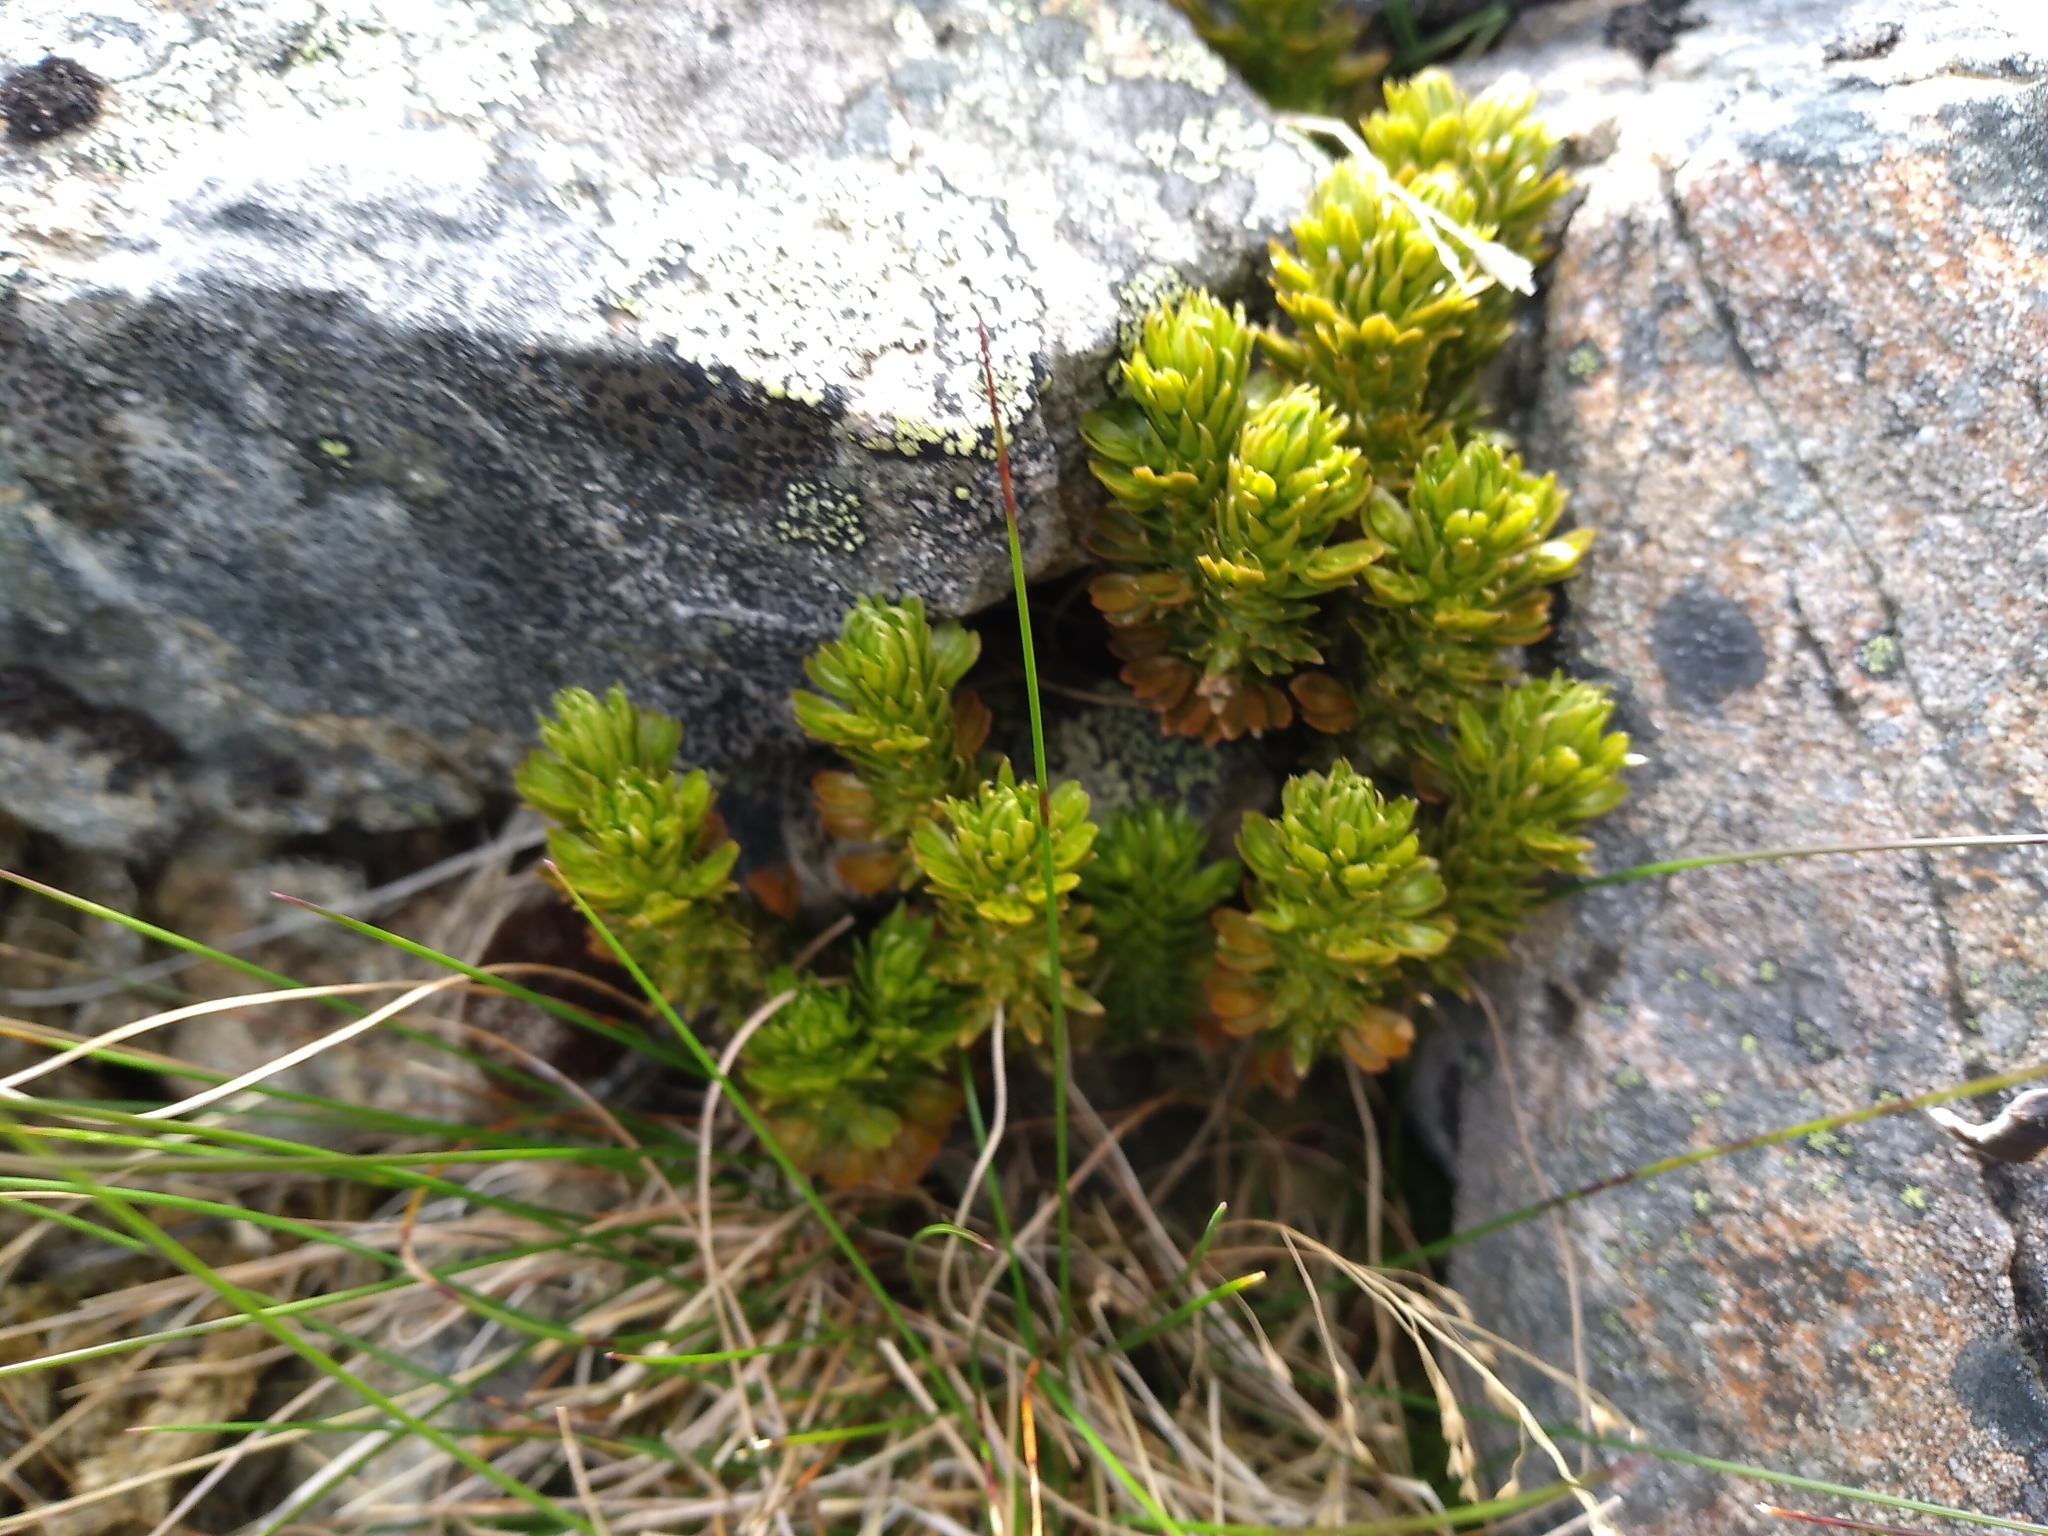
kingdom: Plantae
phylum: Tracheophyta
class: Lycopodiopsida
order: Lycopodiales
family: Lycopodiaceae
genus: Huperzia
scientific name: Huperzia australiana
